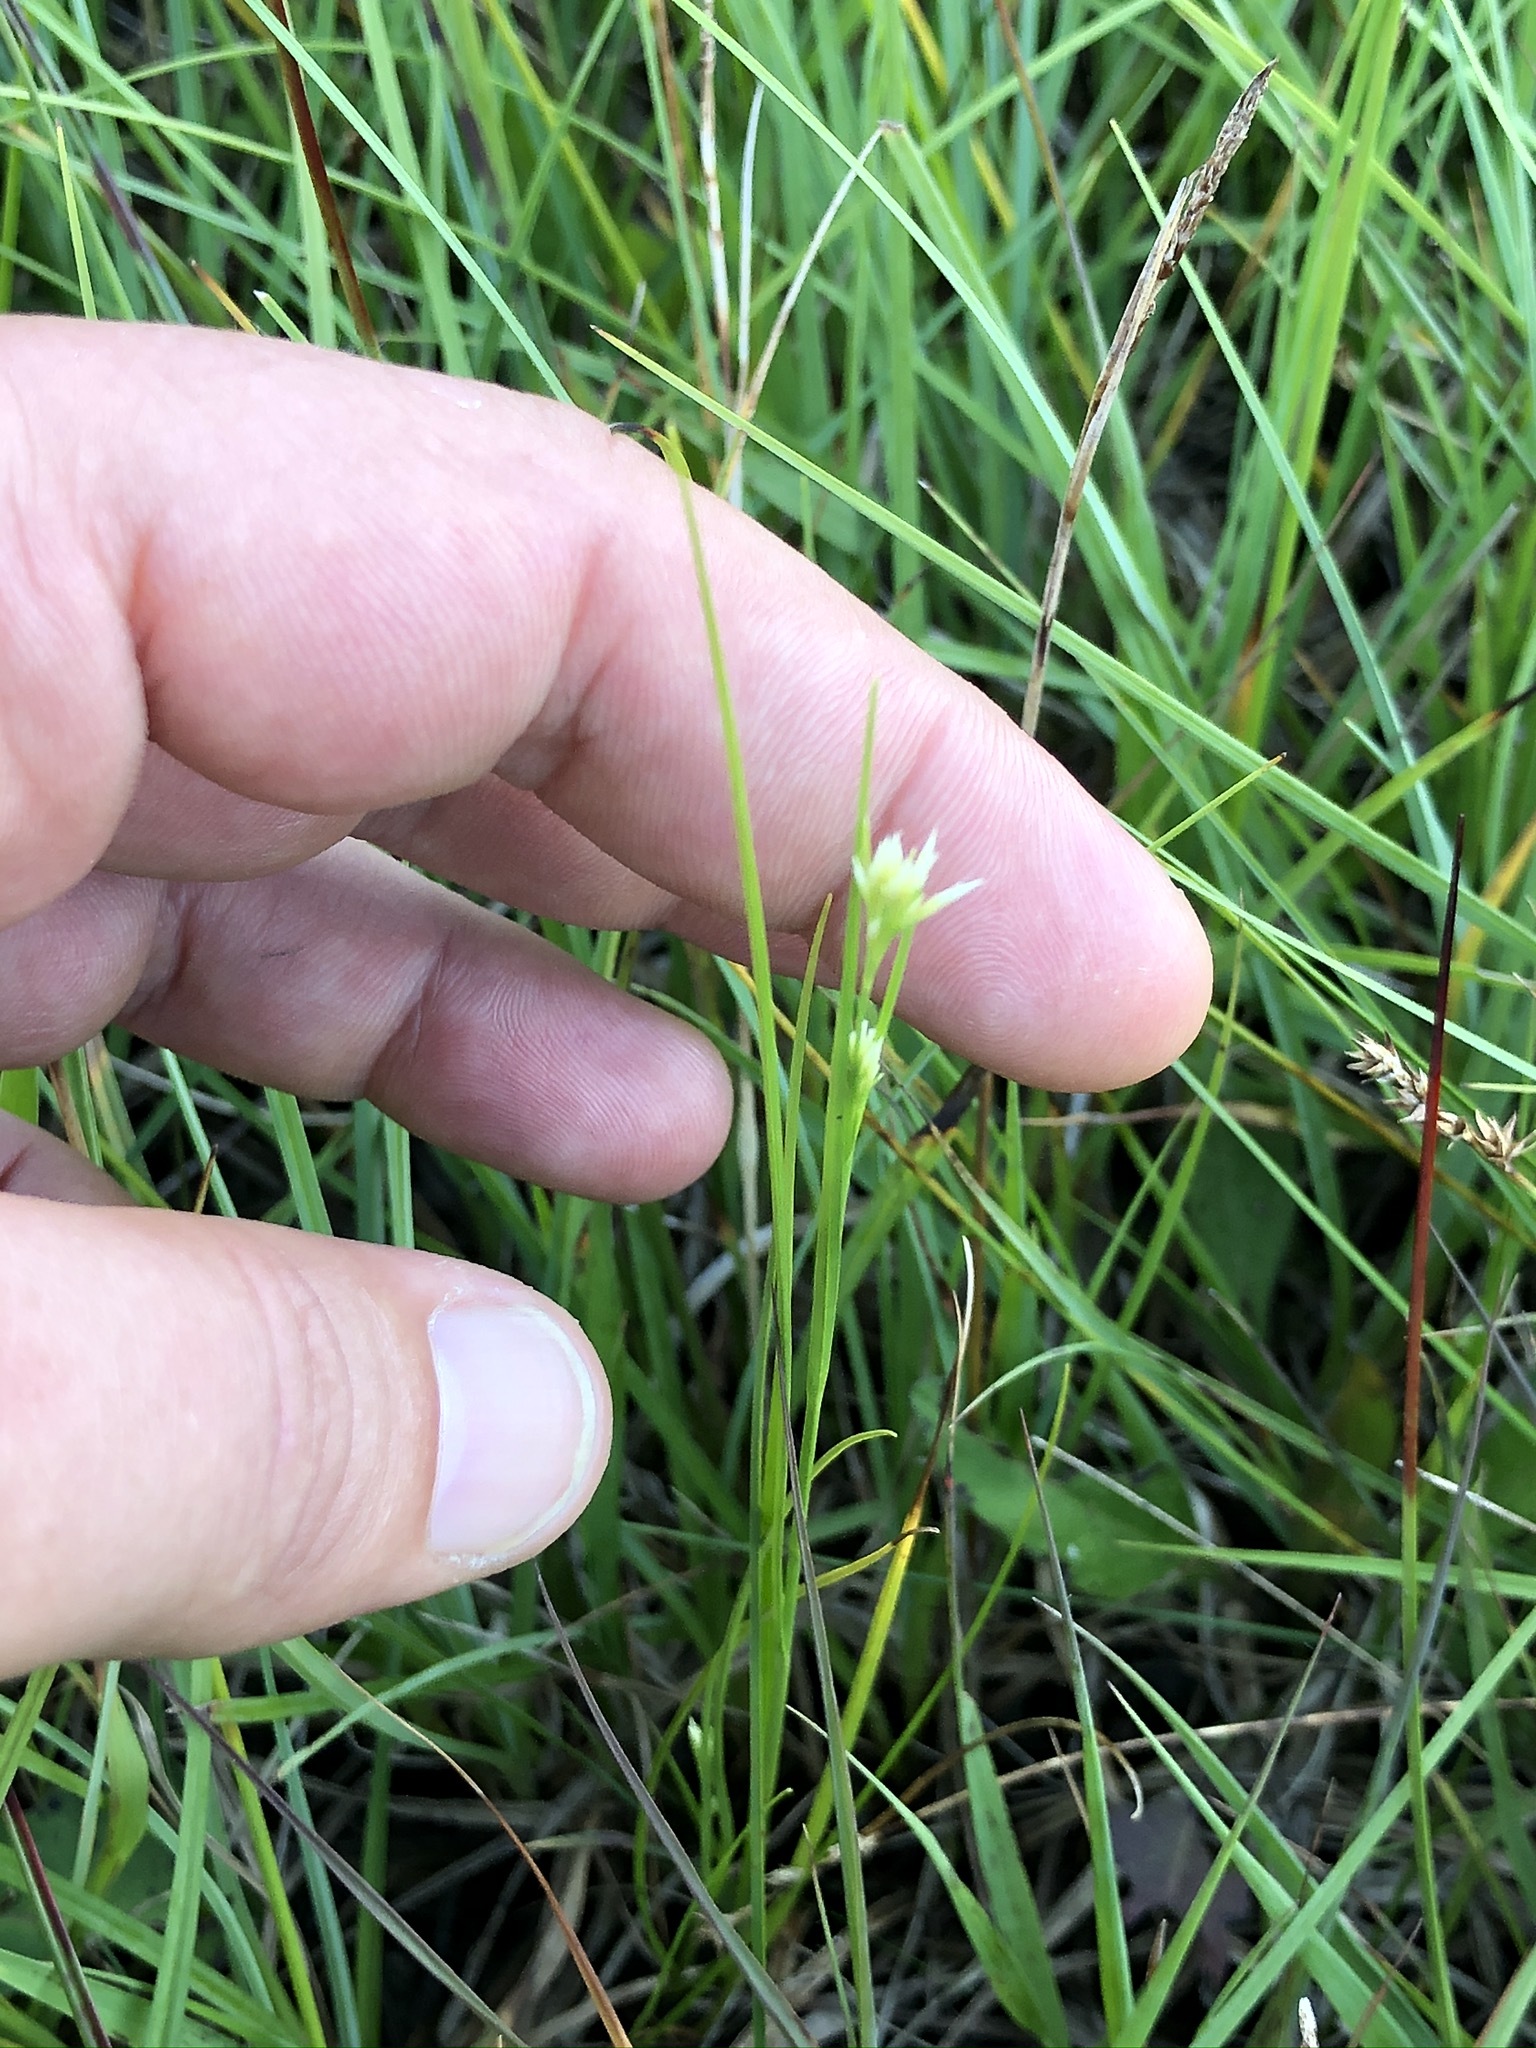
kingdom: Plantae
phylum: Tracheophyta
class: Liliopsida
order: Poales
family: Cyperaceae
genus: Rhynchospora
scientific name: Rhynchospora alba
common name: White beak-sedge
